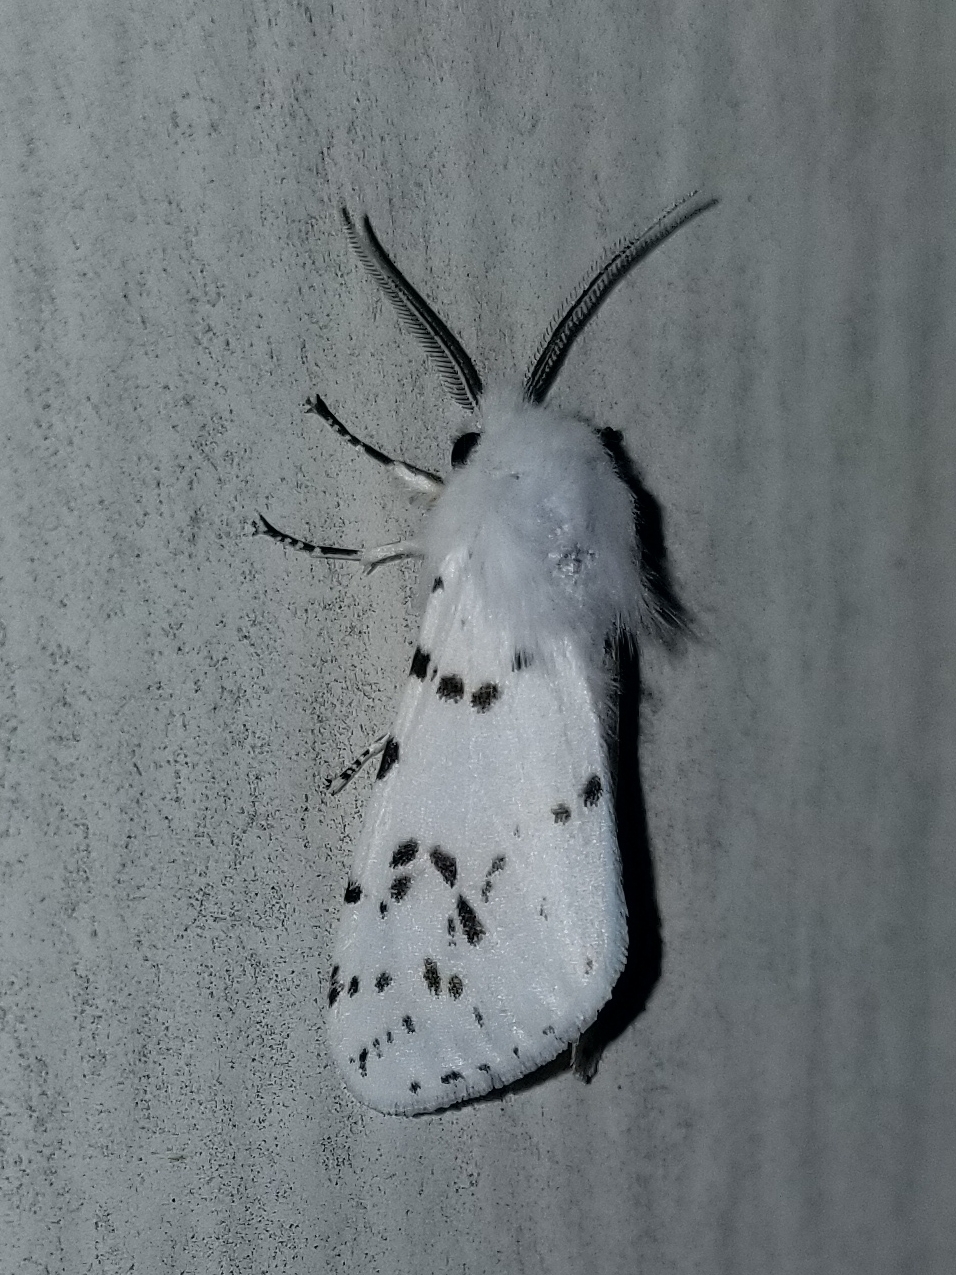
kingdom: Animalia
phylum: Arthropoda
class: Insecta
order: Lepidoptera
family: Erebidae
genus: Hyphantria
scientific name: Hyphantria cunea
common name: American white moth
